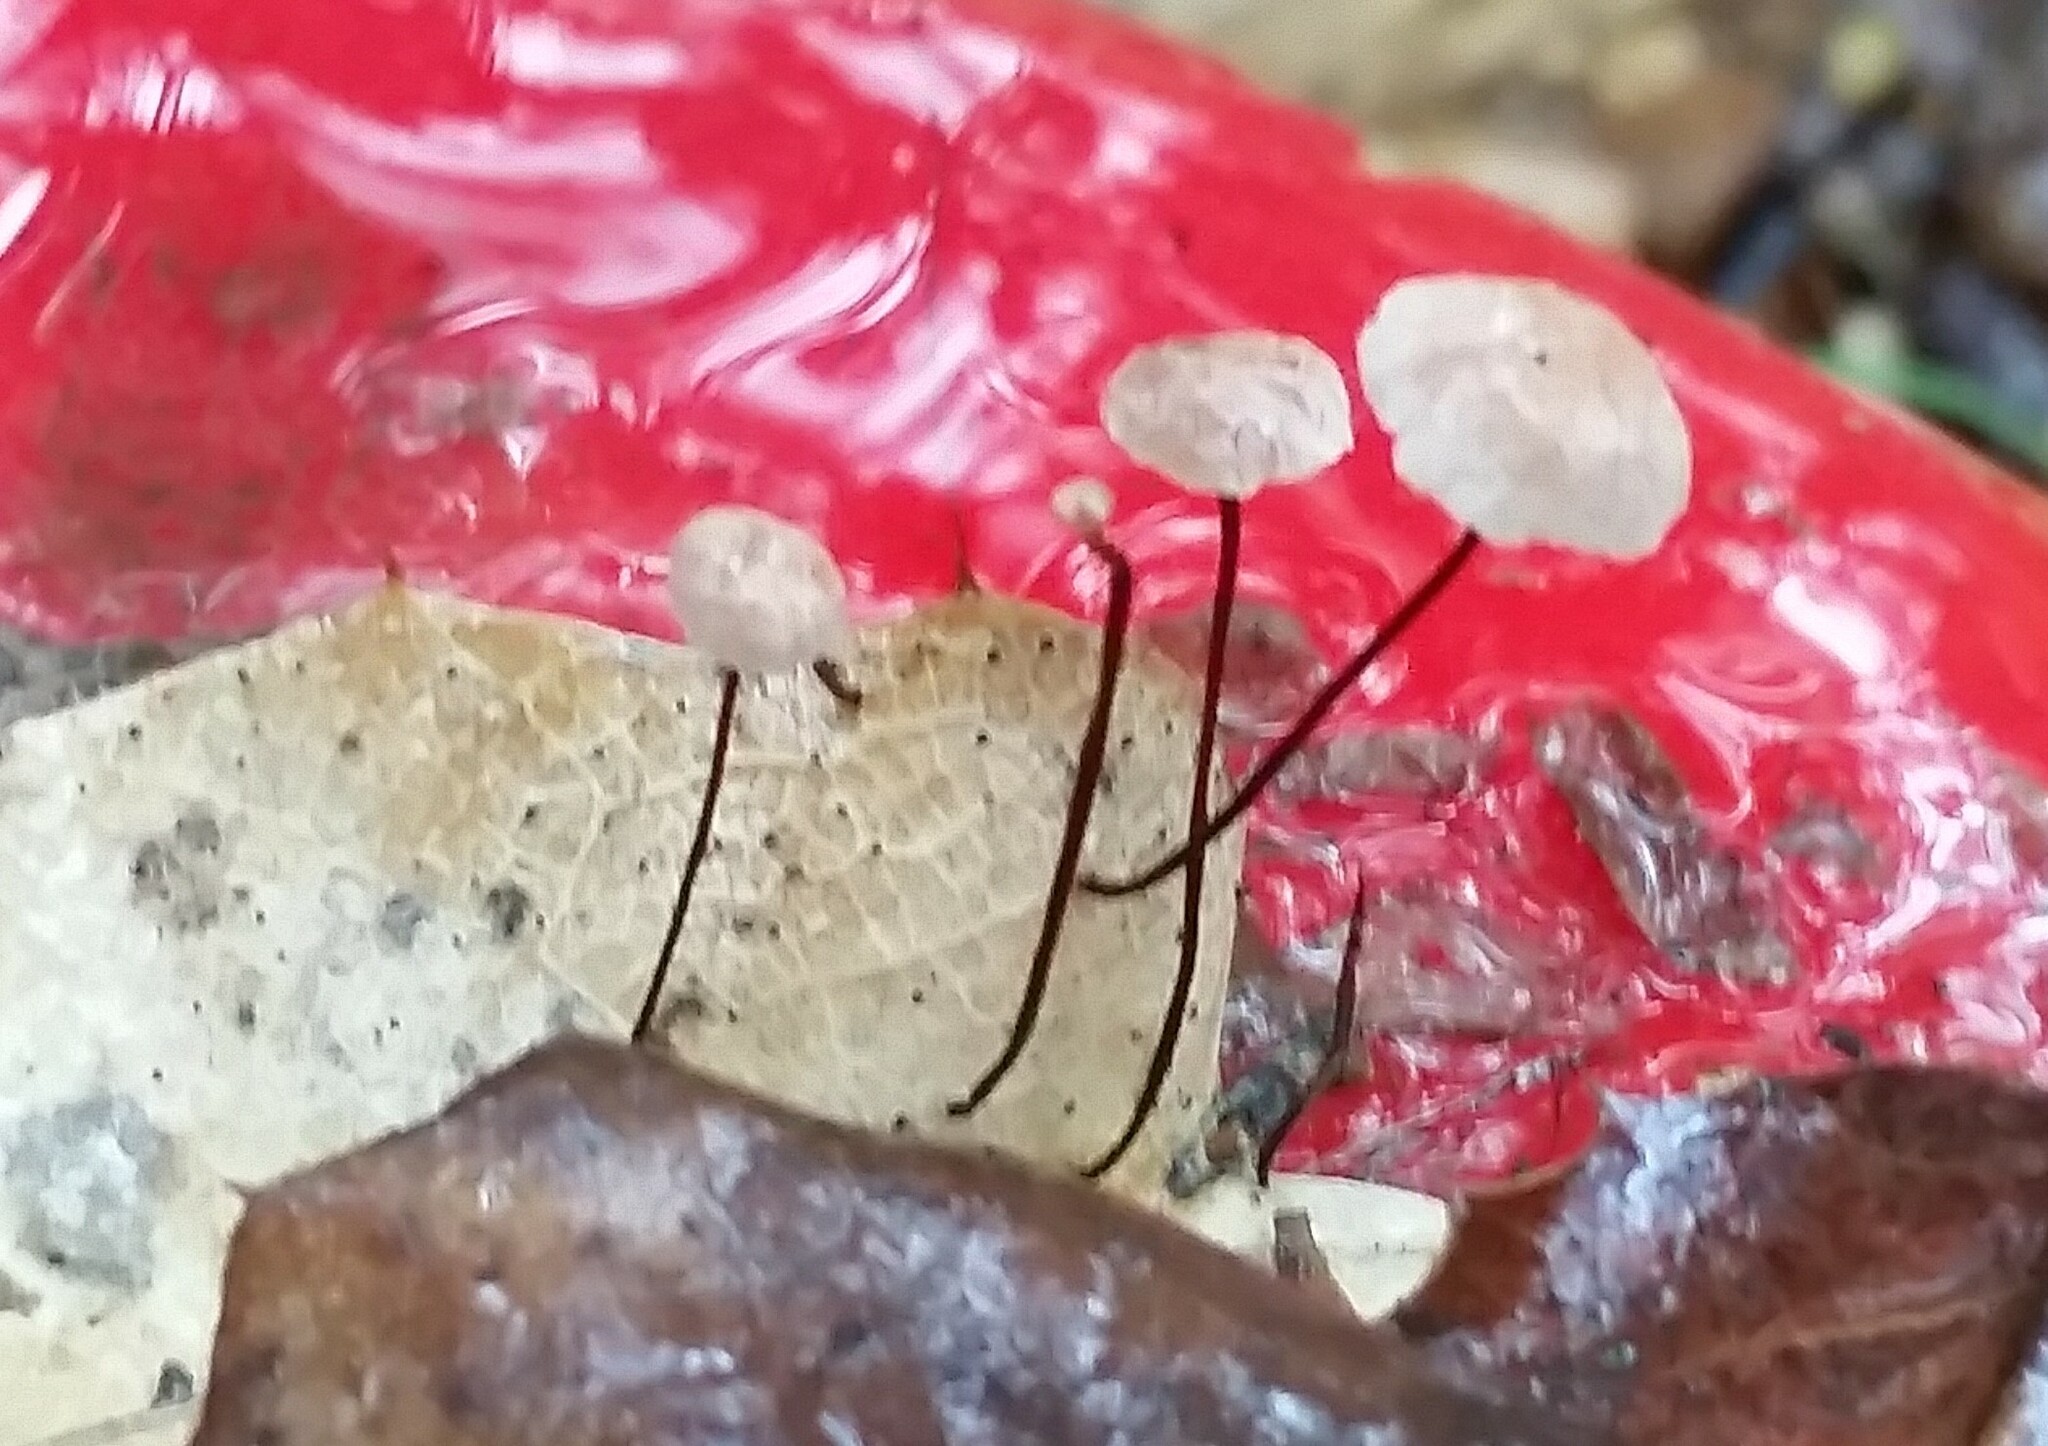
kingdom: Fungi
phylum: Basidiomycota
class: Agaricomycetes
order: Agaricales
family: Omphalotaceae
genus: Collybiopsis
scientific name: Collybiopsis quercophila
